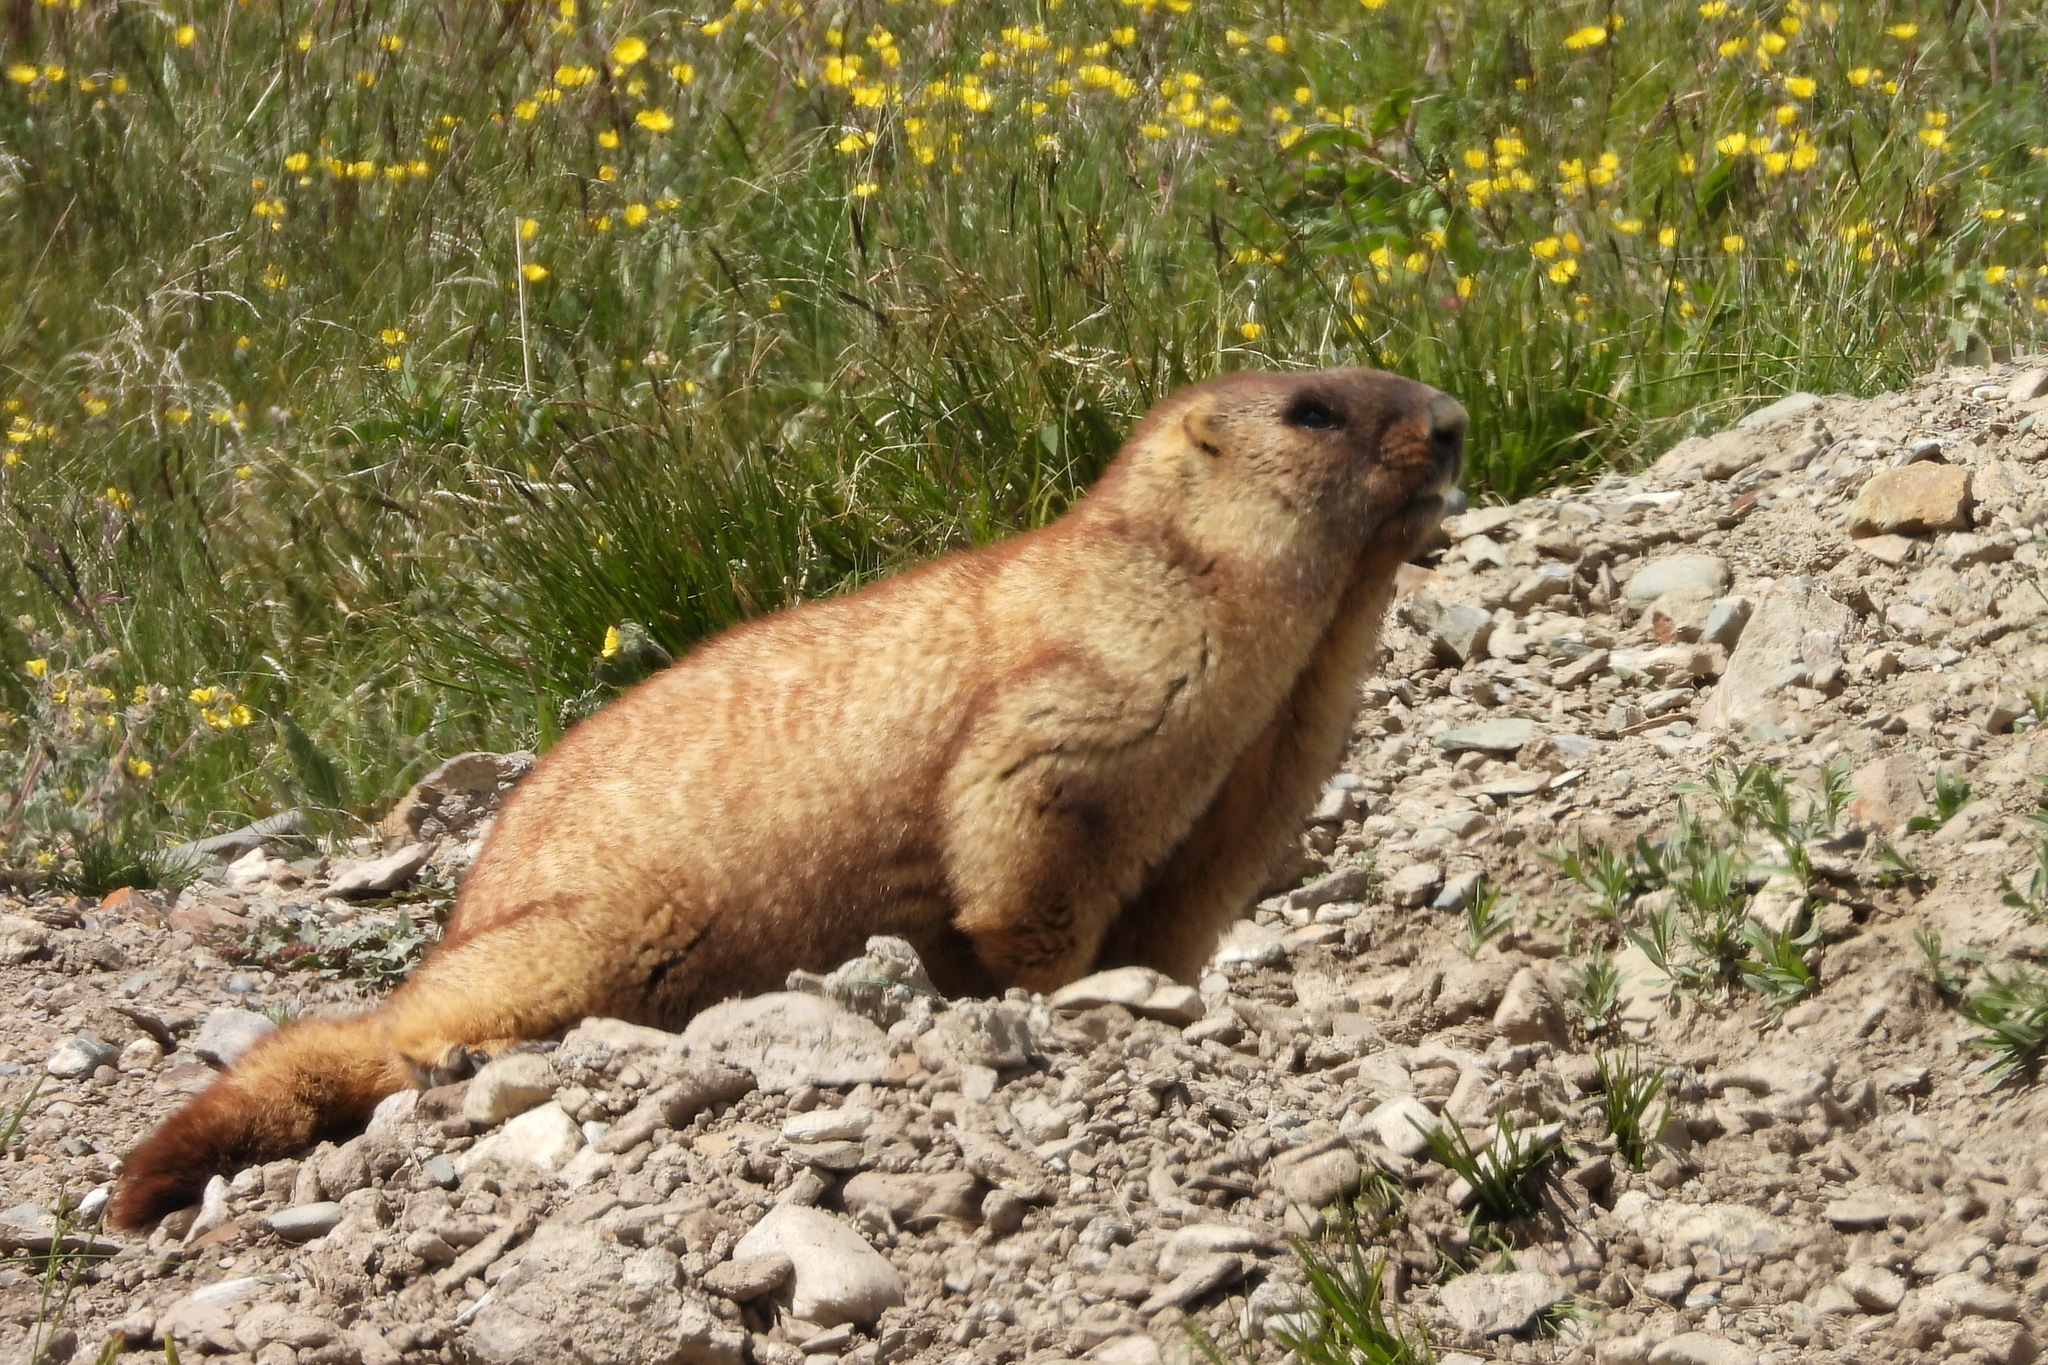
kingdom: Animalia
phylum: Chordata
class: Mammalia
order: Rodentia
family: Sciuridae
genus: Marmota
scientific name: Marmota baibacina
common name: Gray marmot
